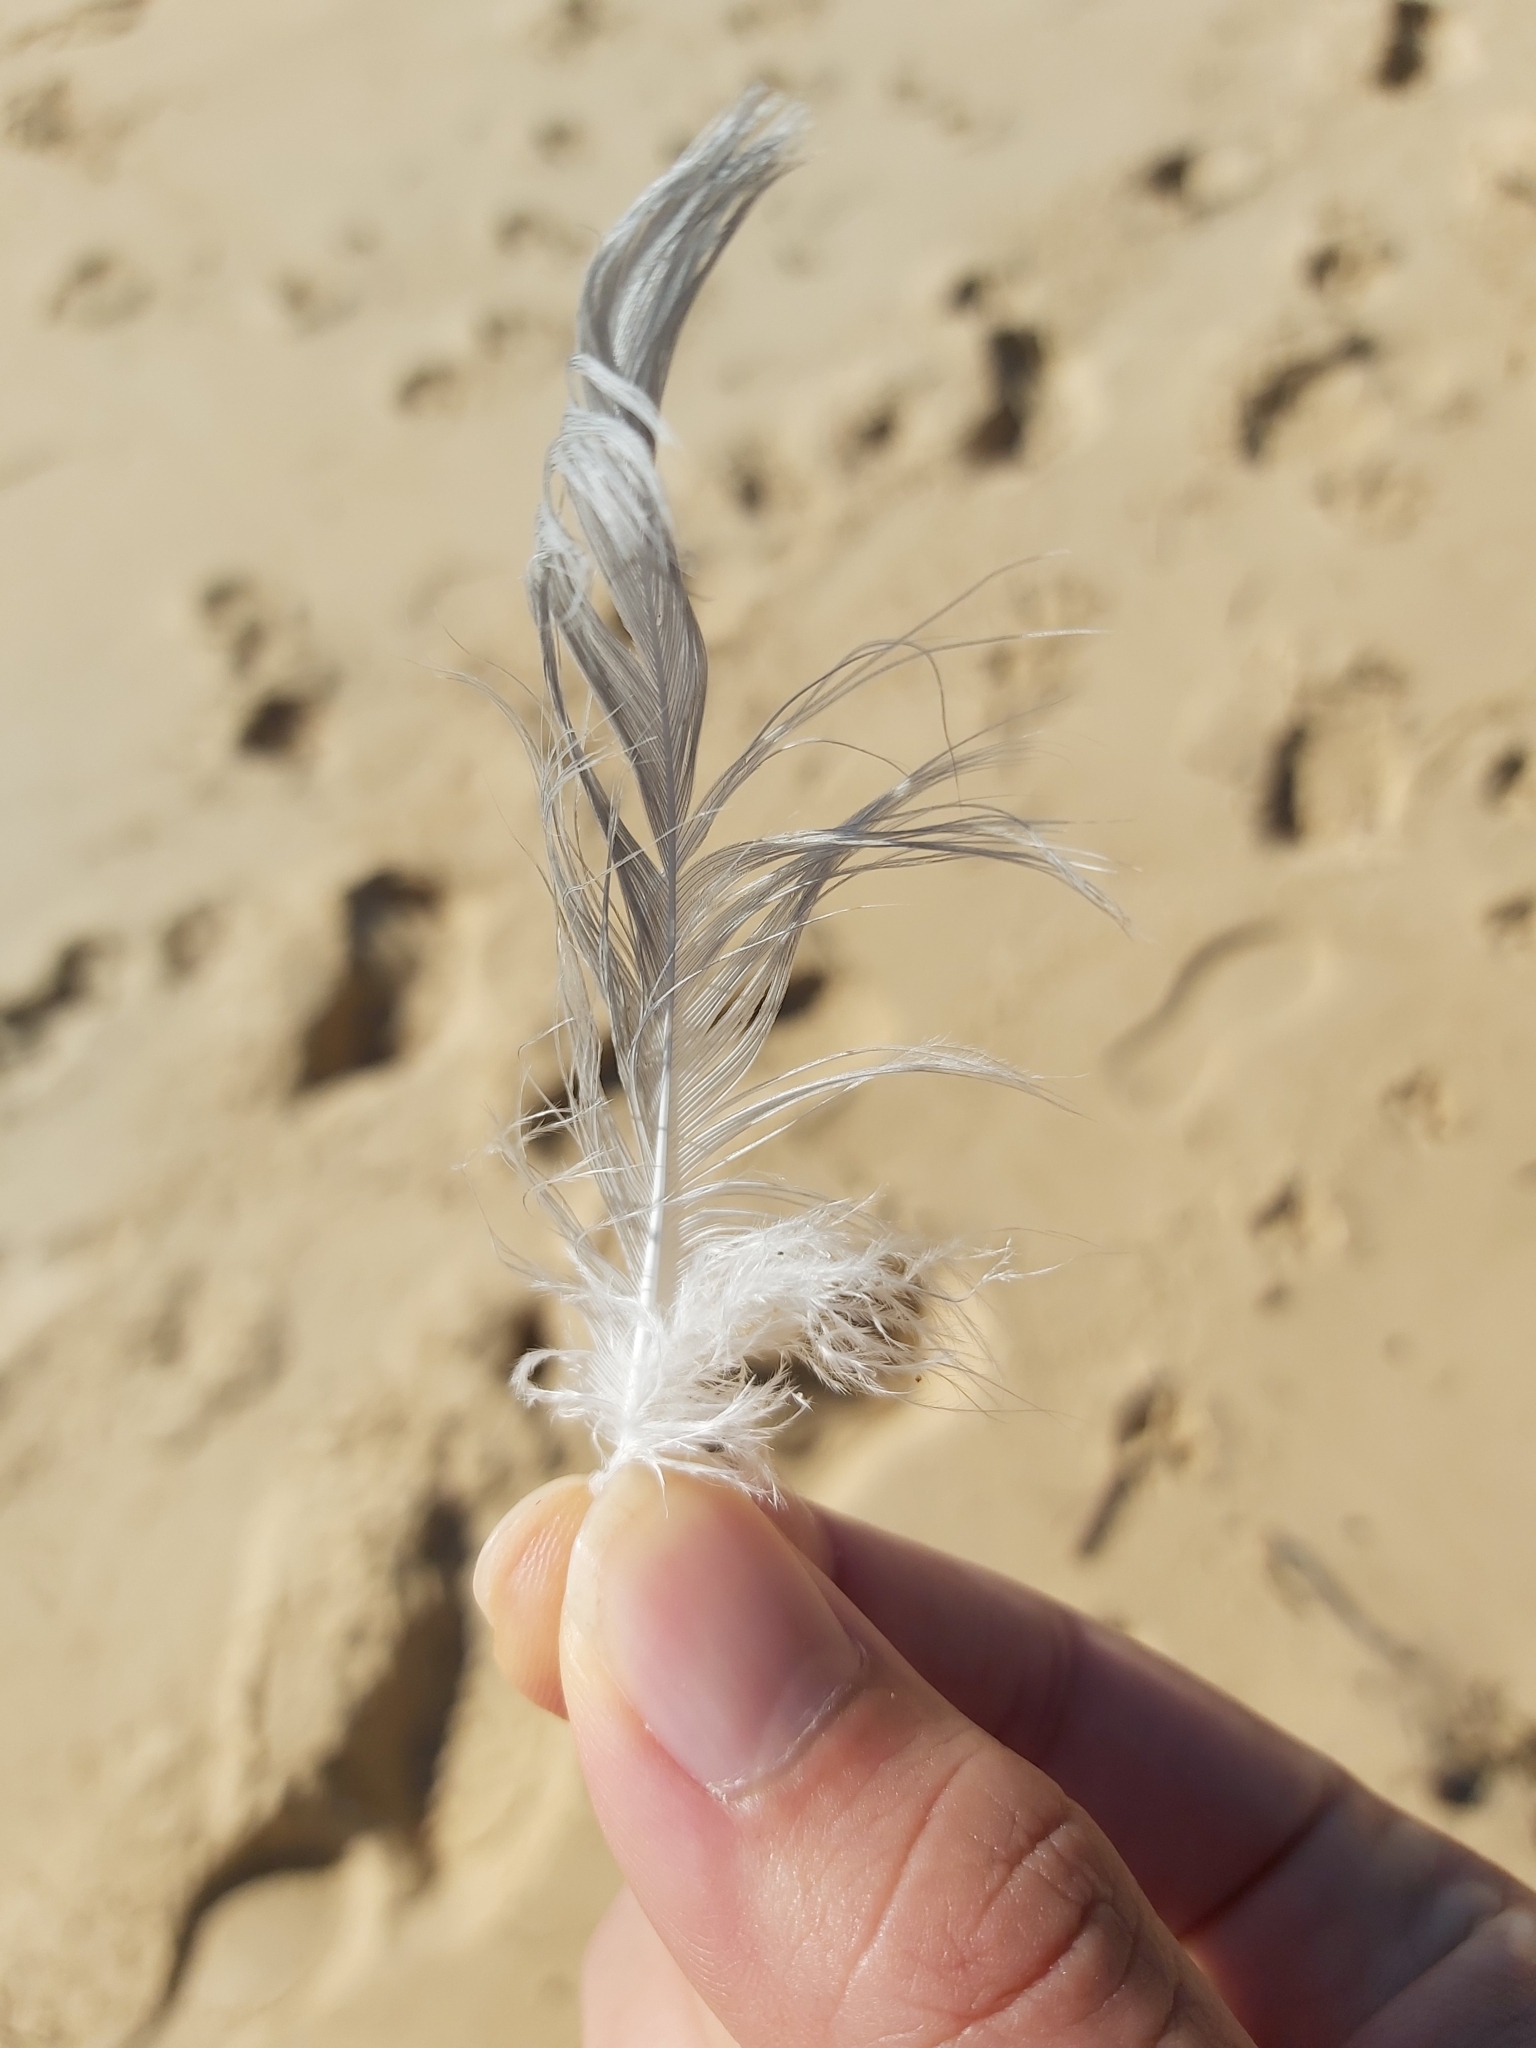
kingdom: Animalia
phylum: Chordata
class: Aves
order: Charadriiformes
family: Laridae
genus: Chroicocephalus
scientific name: Chroicocephalus novaehollandiae
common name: Silver gull
